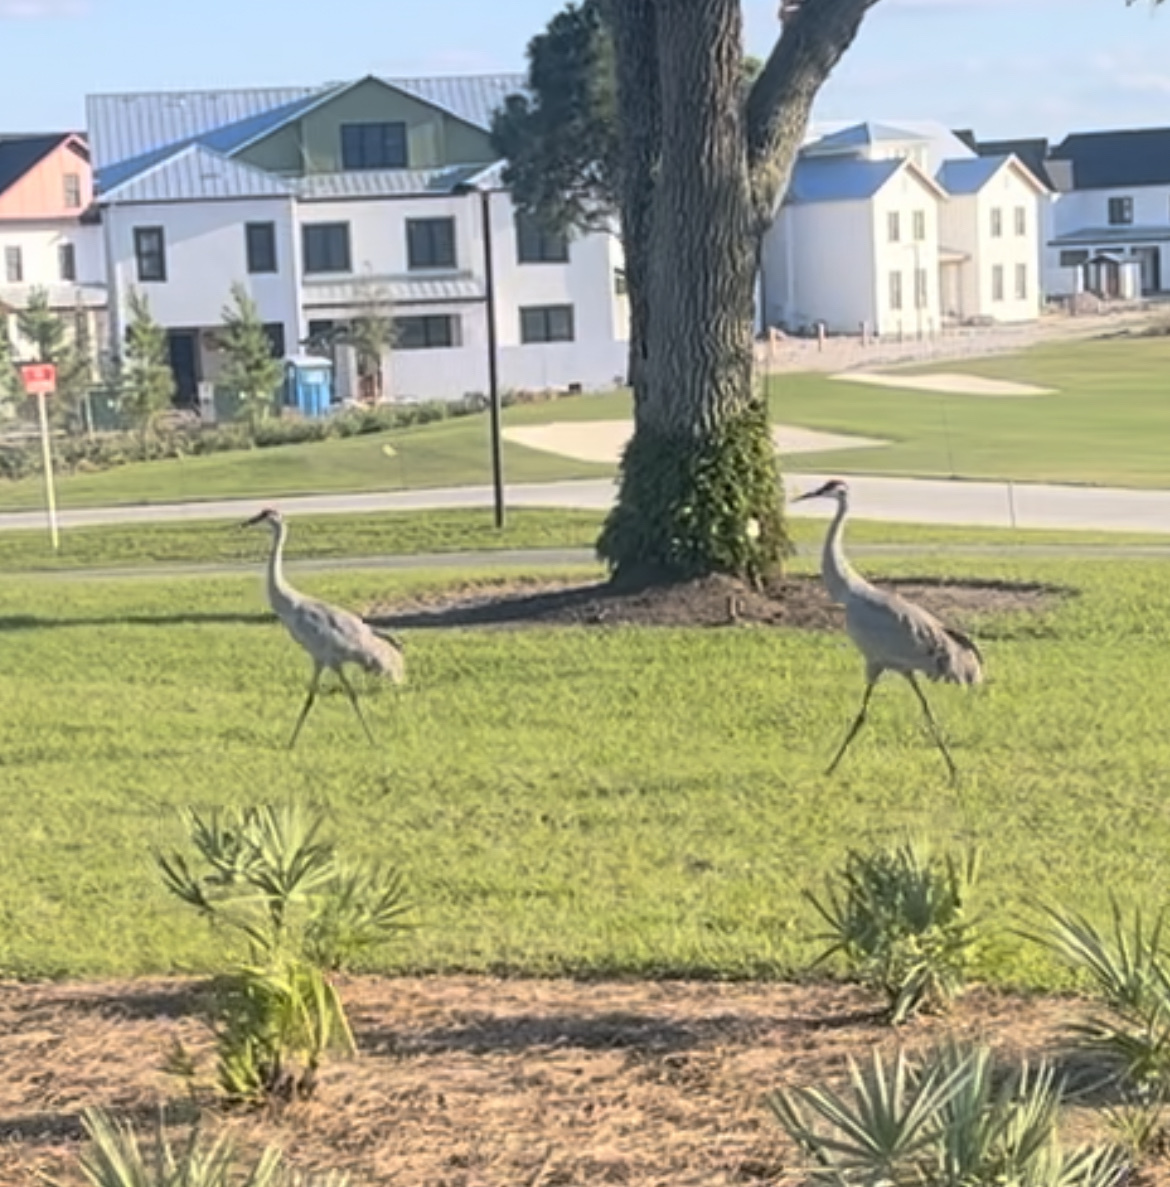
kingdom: Animalia
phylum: Chordata
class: Aves
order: Gruiformes
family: Gruidae
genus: Grus
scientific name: Grus canadensis
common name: Sandhill crane
